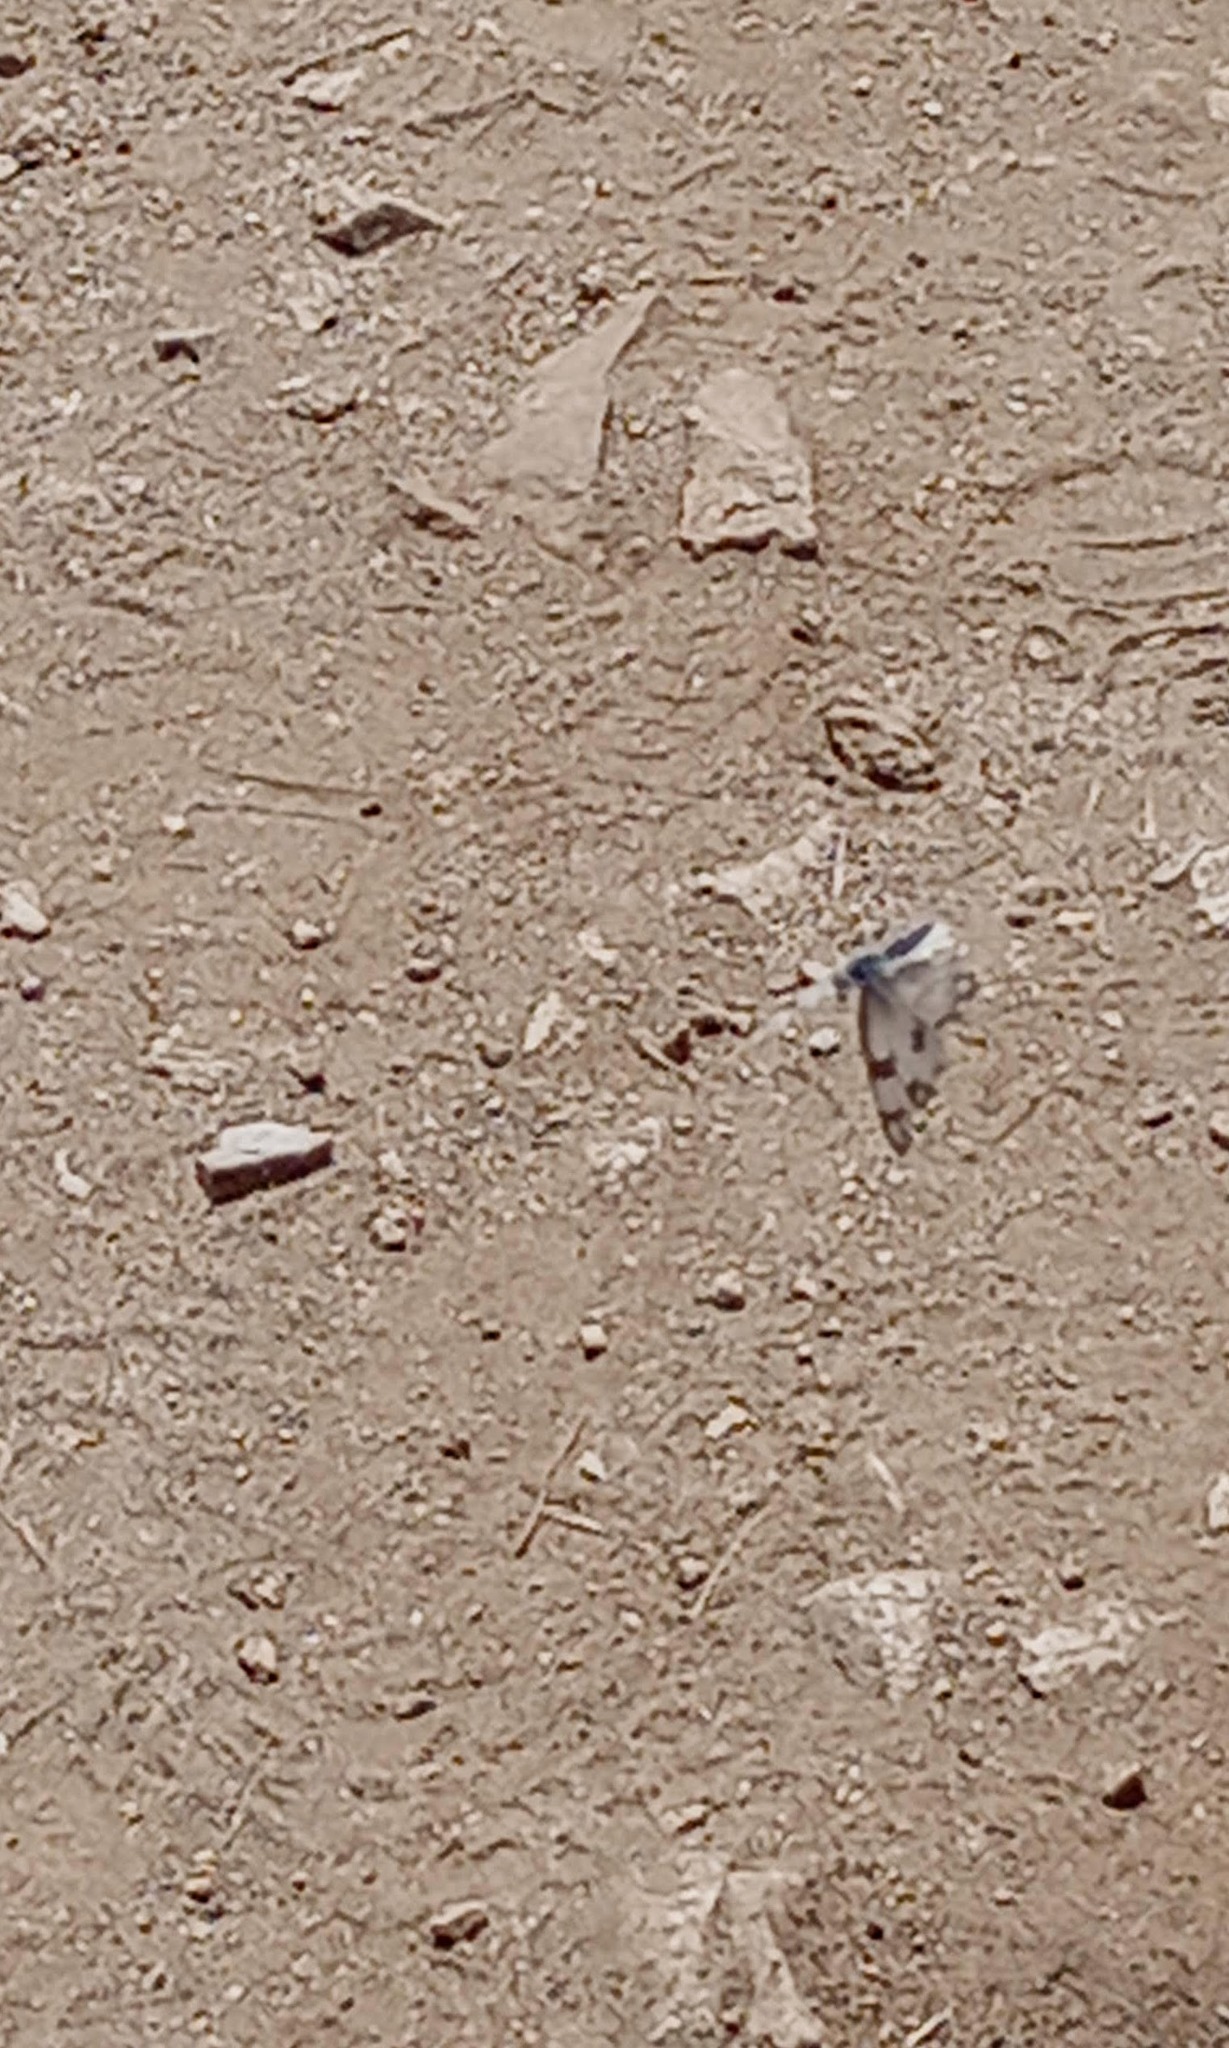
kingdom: Animalia
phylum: Arthropoda
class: Insecta
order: Lepidoptera
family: Pieridae
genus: Pontia
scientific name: Pontia protodice
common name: Checkered white
